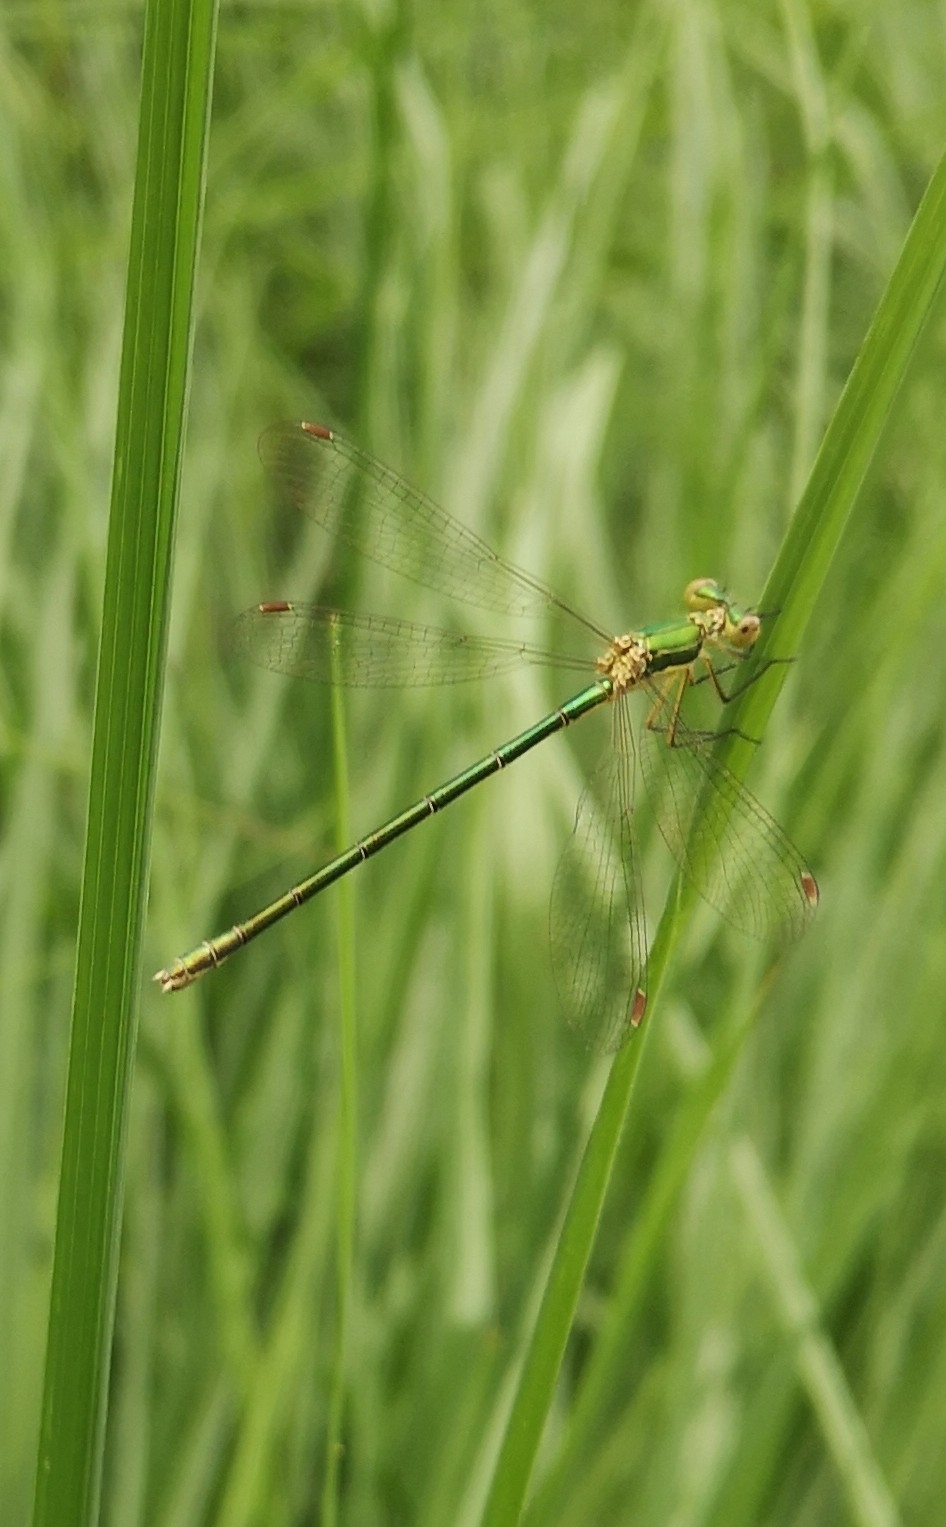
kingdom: Animalia
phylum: Arthropoda
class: Insecta
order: Odonata
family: Lestidae
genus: Lestes
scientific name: Lestes virens
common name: Small emerald spreadwing
